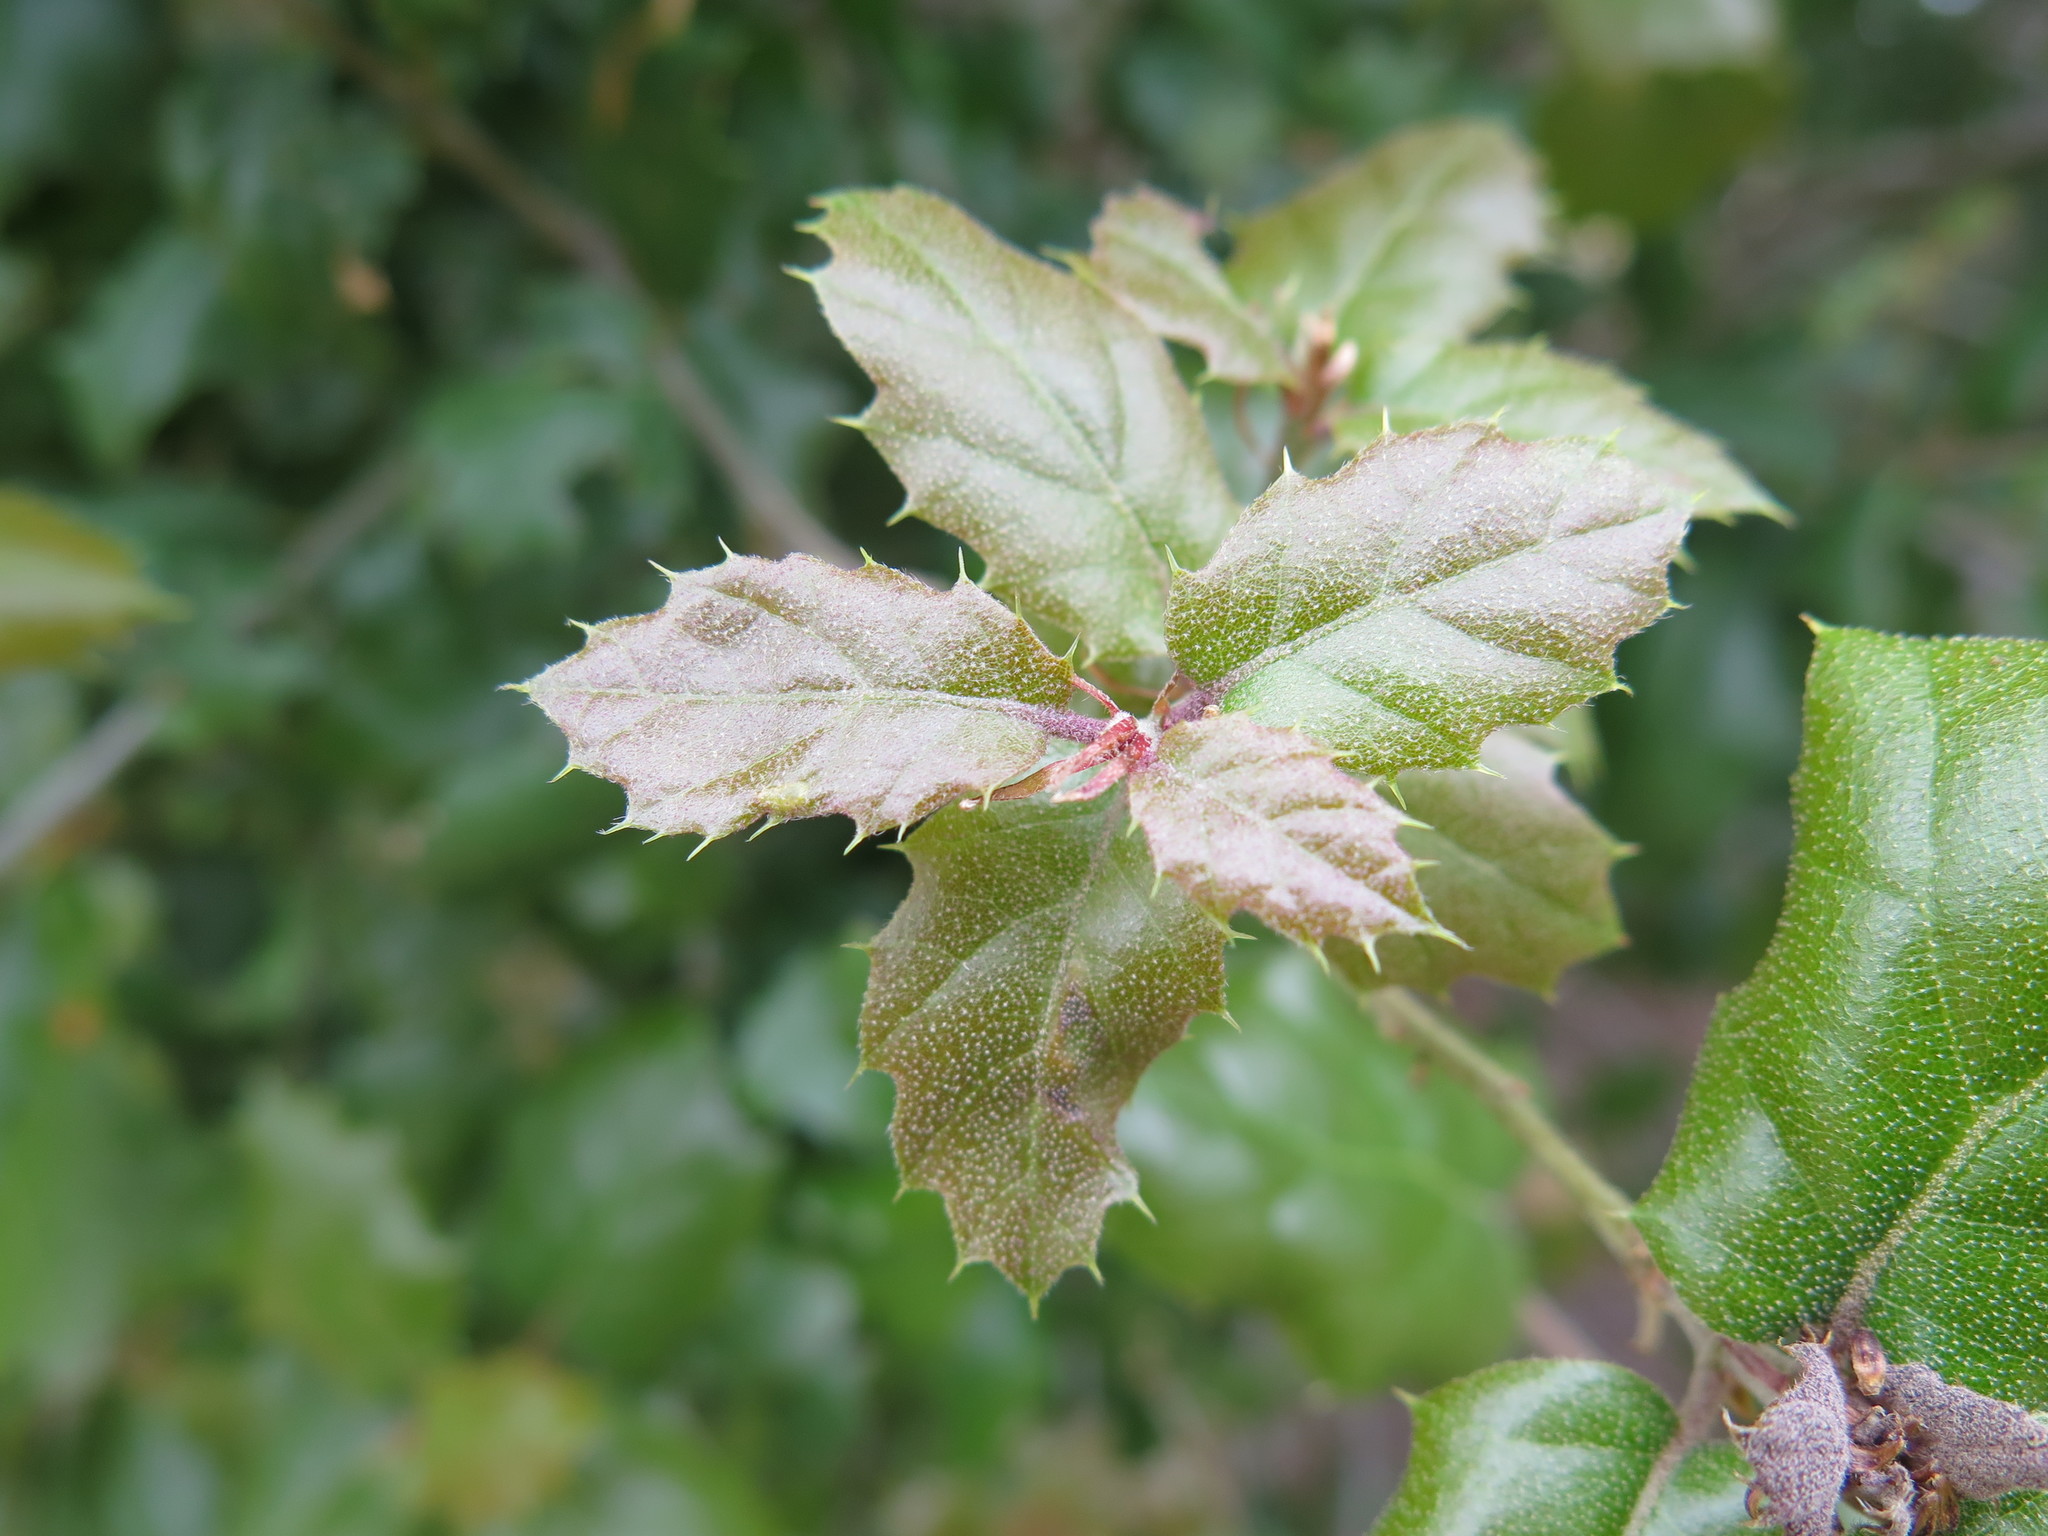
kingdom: Plantae
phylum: Tracheophyta
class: Magnoliopsida
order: Fagales
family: Fagaceae
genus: Quercus
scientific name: Quercus agrifolia
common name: California live oak
